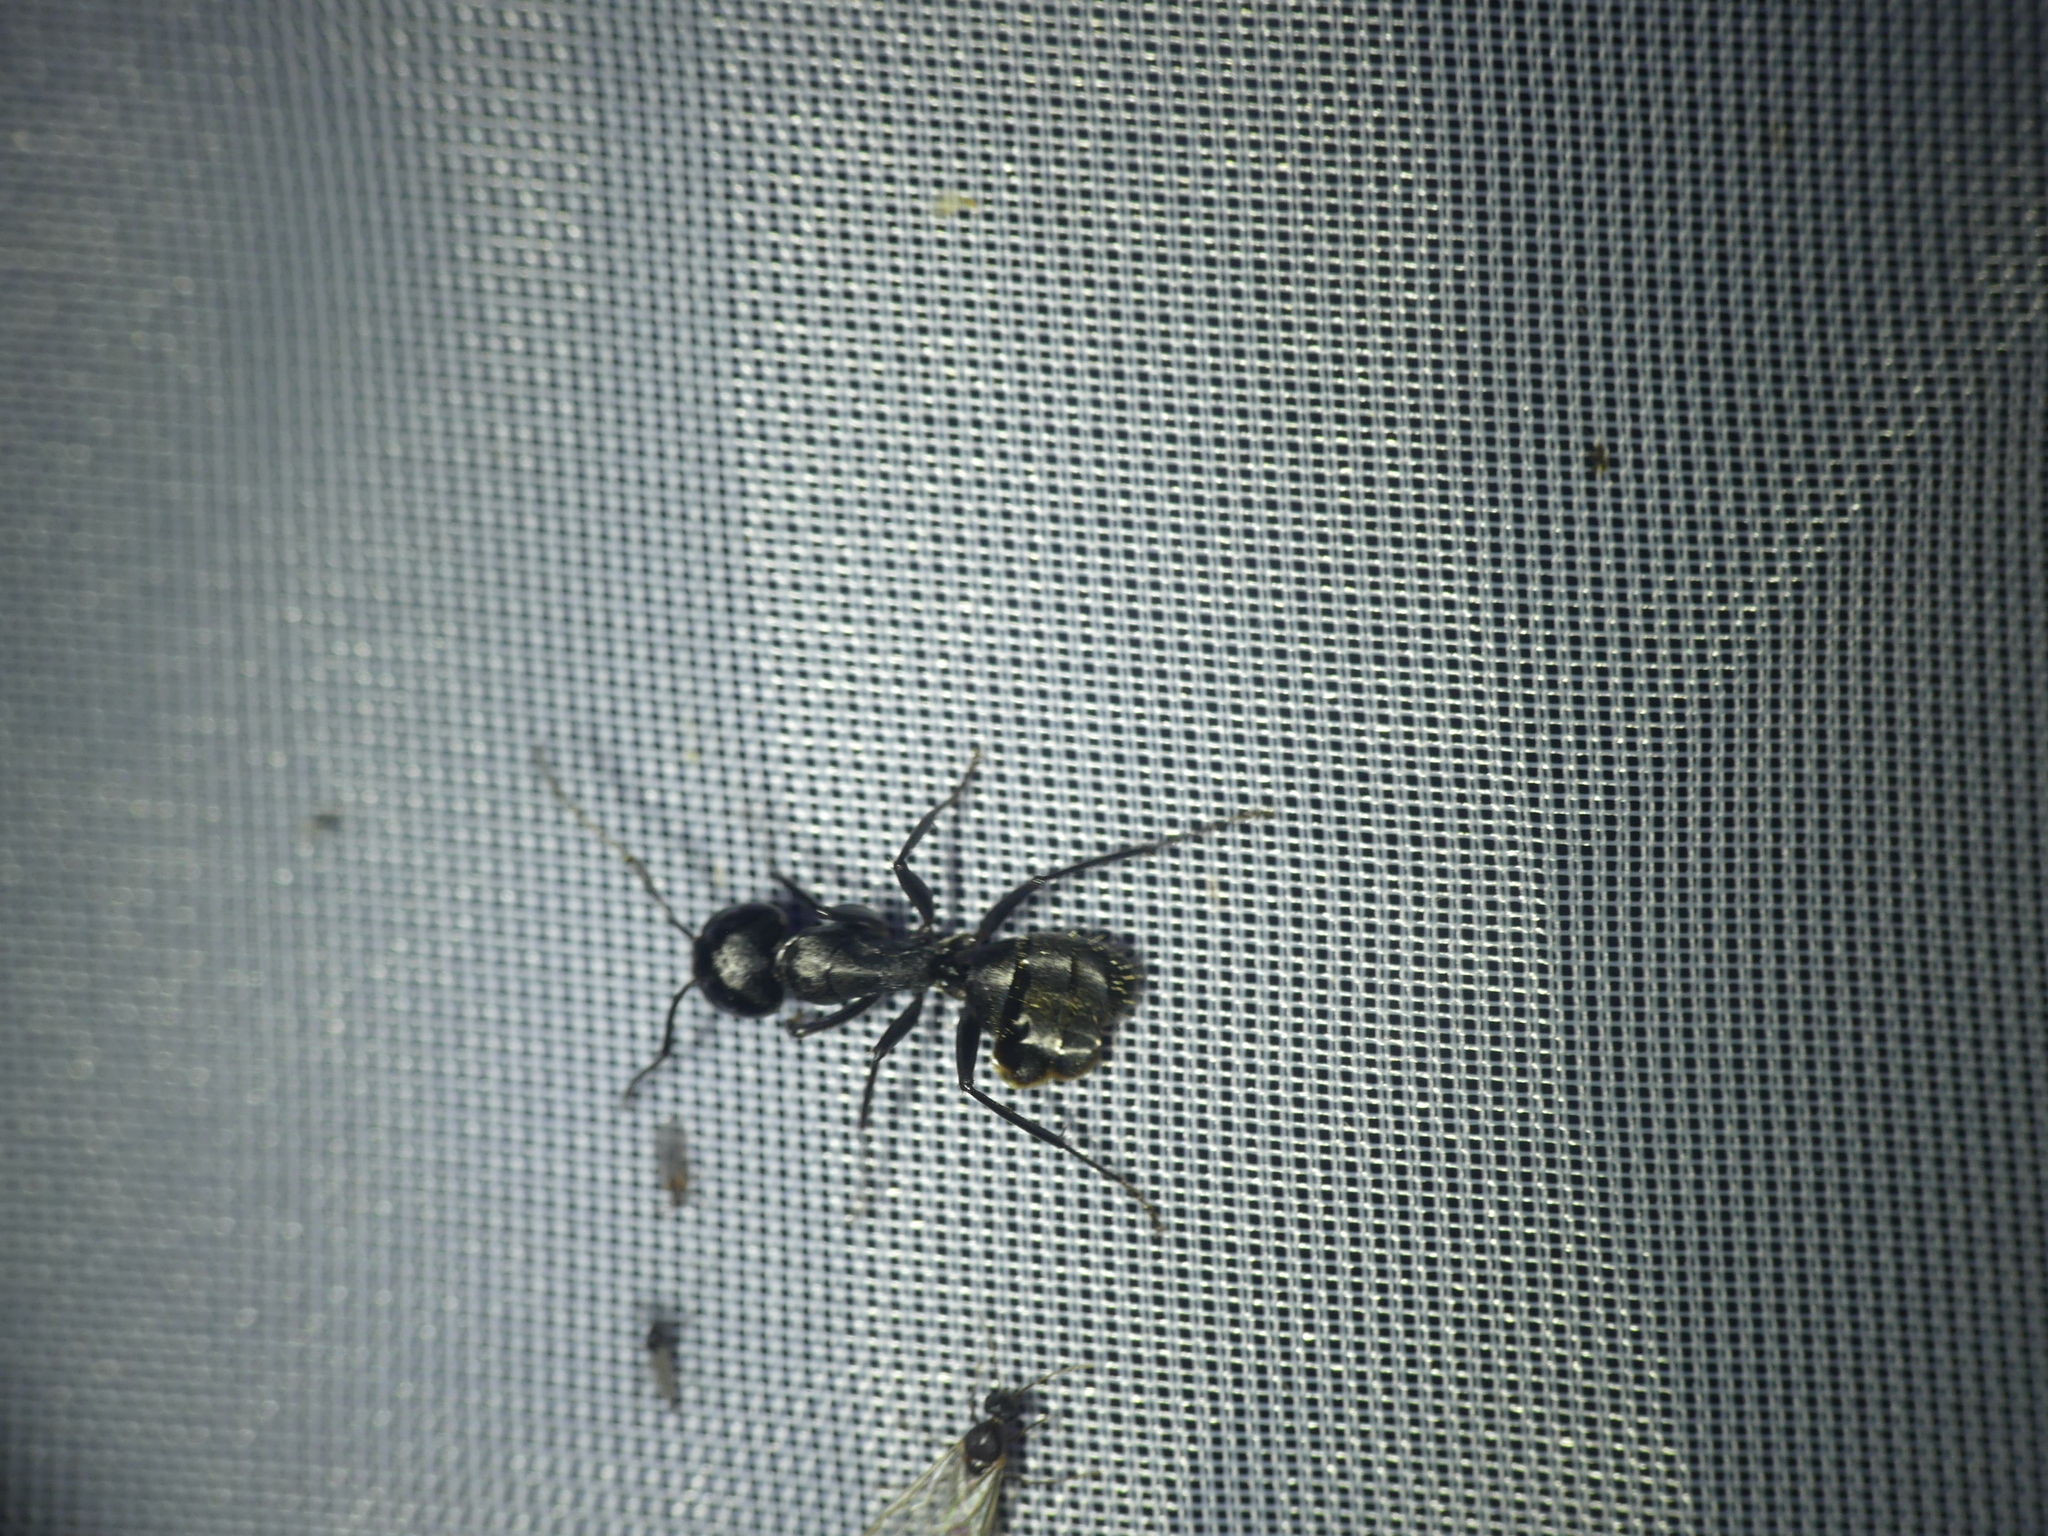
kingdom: Animalia
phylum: Arthropoda
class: Insecta
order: Hymenoptera
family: Formicidae
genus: Camponotus
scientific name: Camponotus vagus
